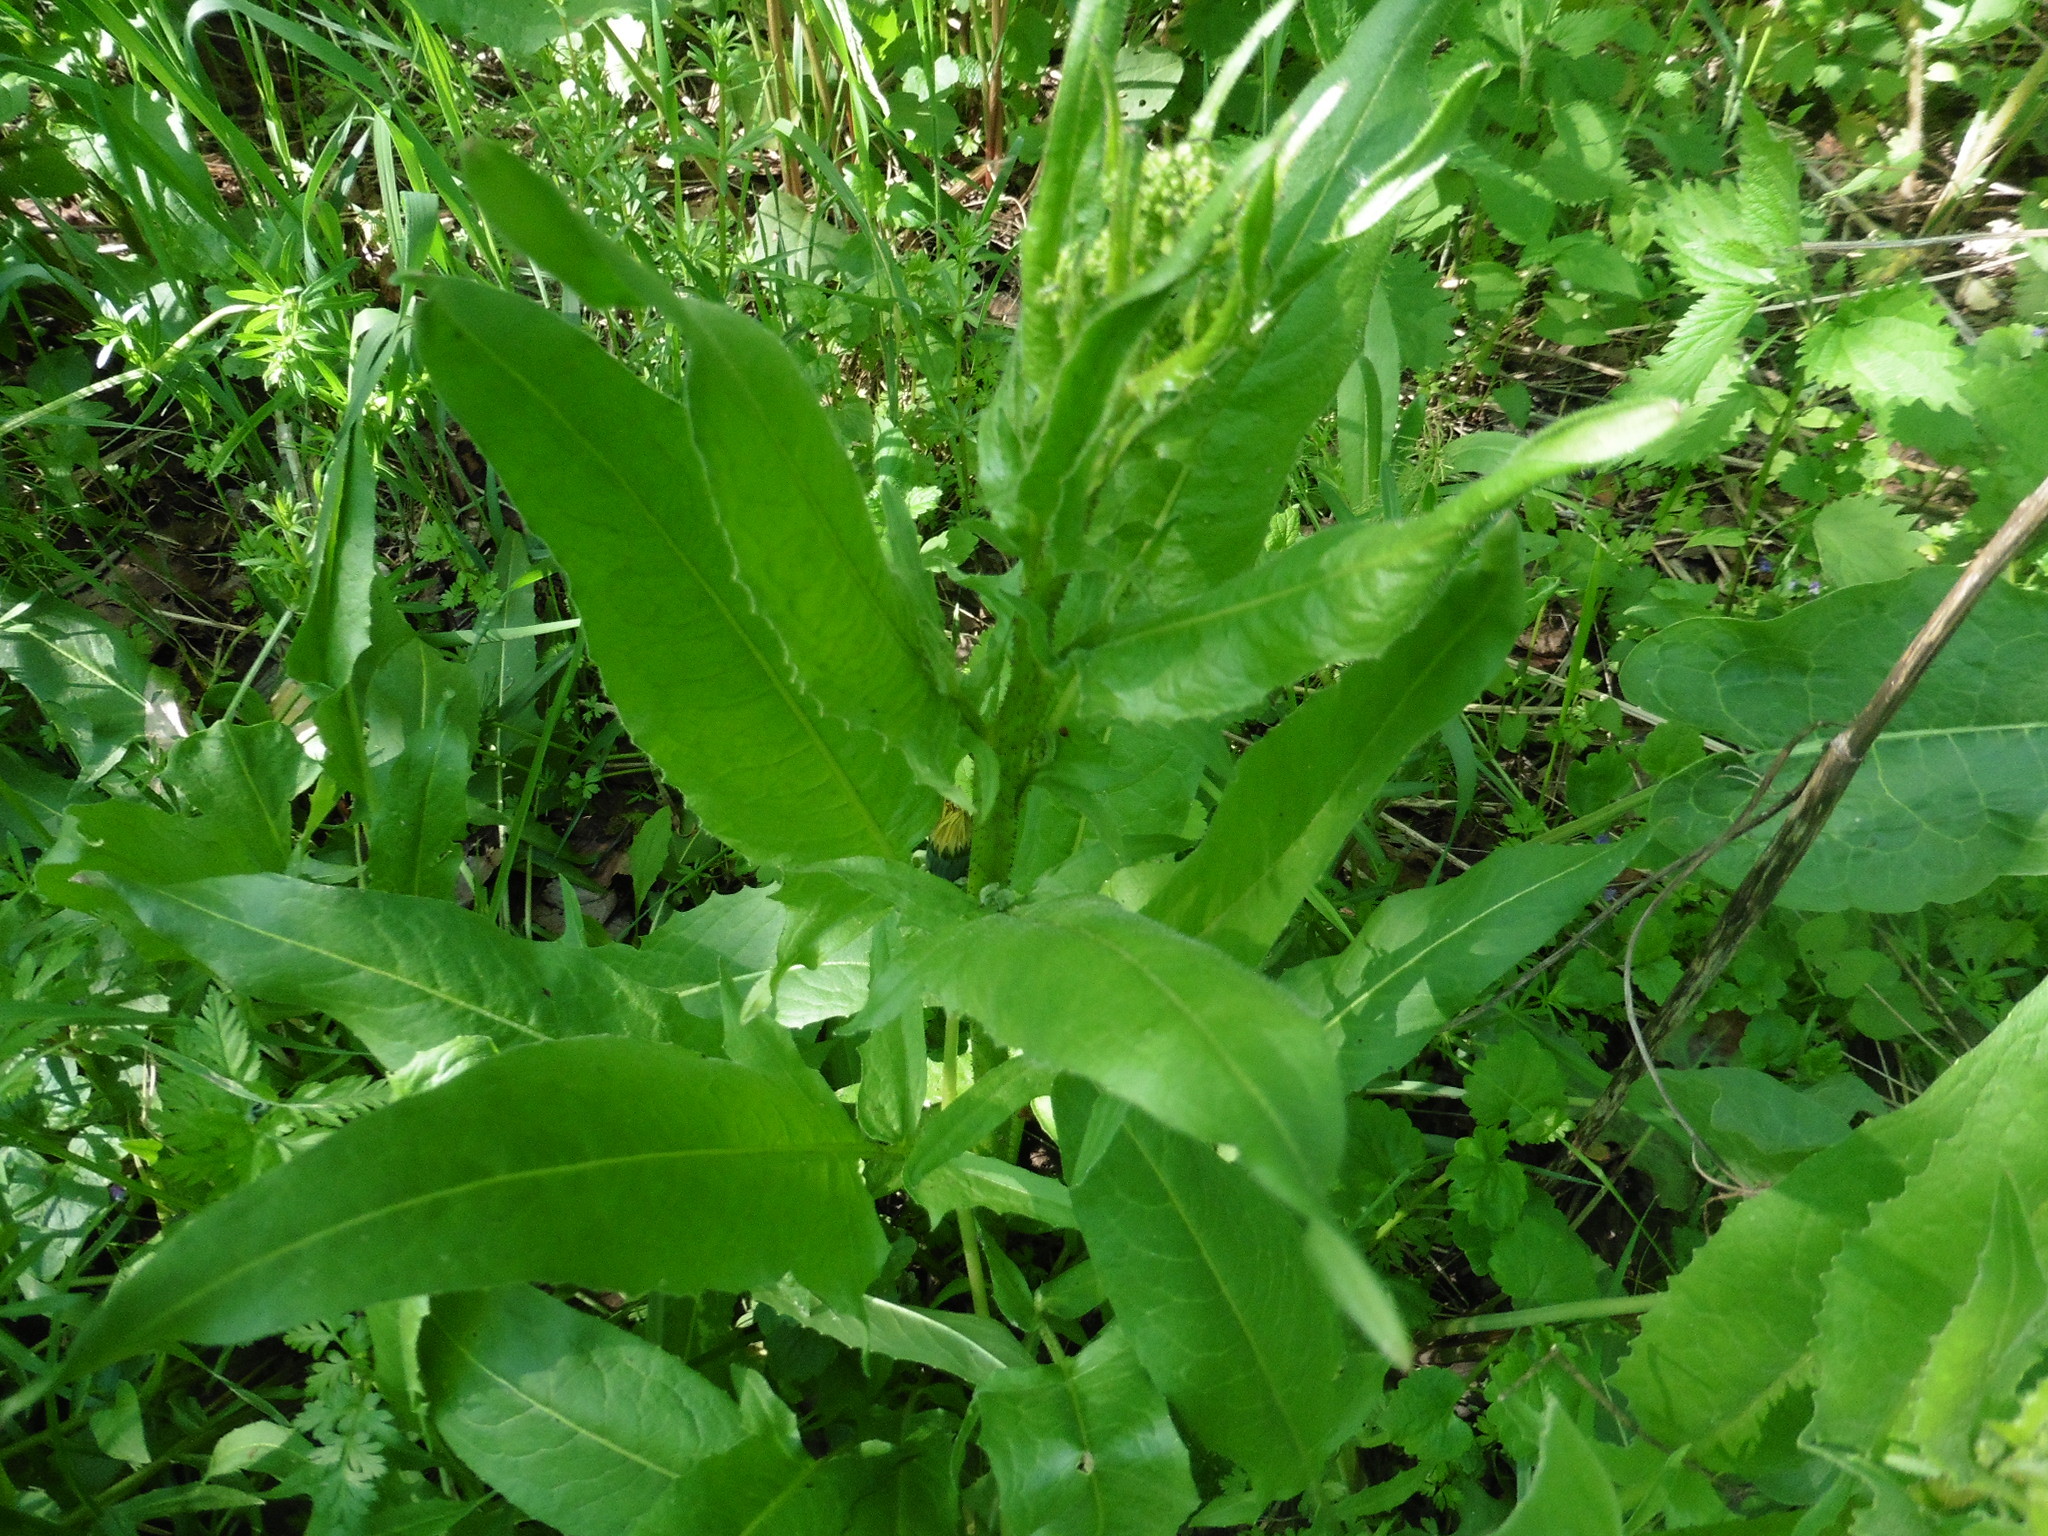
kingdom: Plantae
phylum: Tracheophyta
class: Magnoliopsida
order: Brassicales
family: Brassicaceae
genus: Bunias
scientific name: Bunias orientalis
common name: Warty-cabbage
